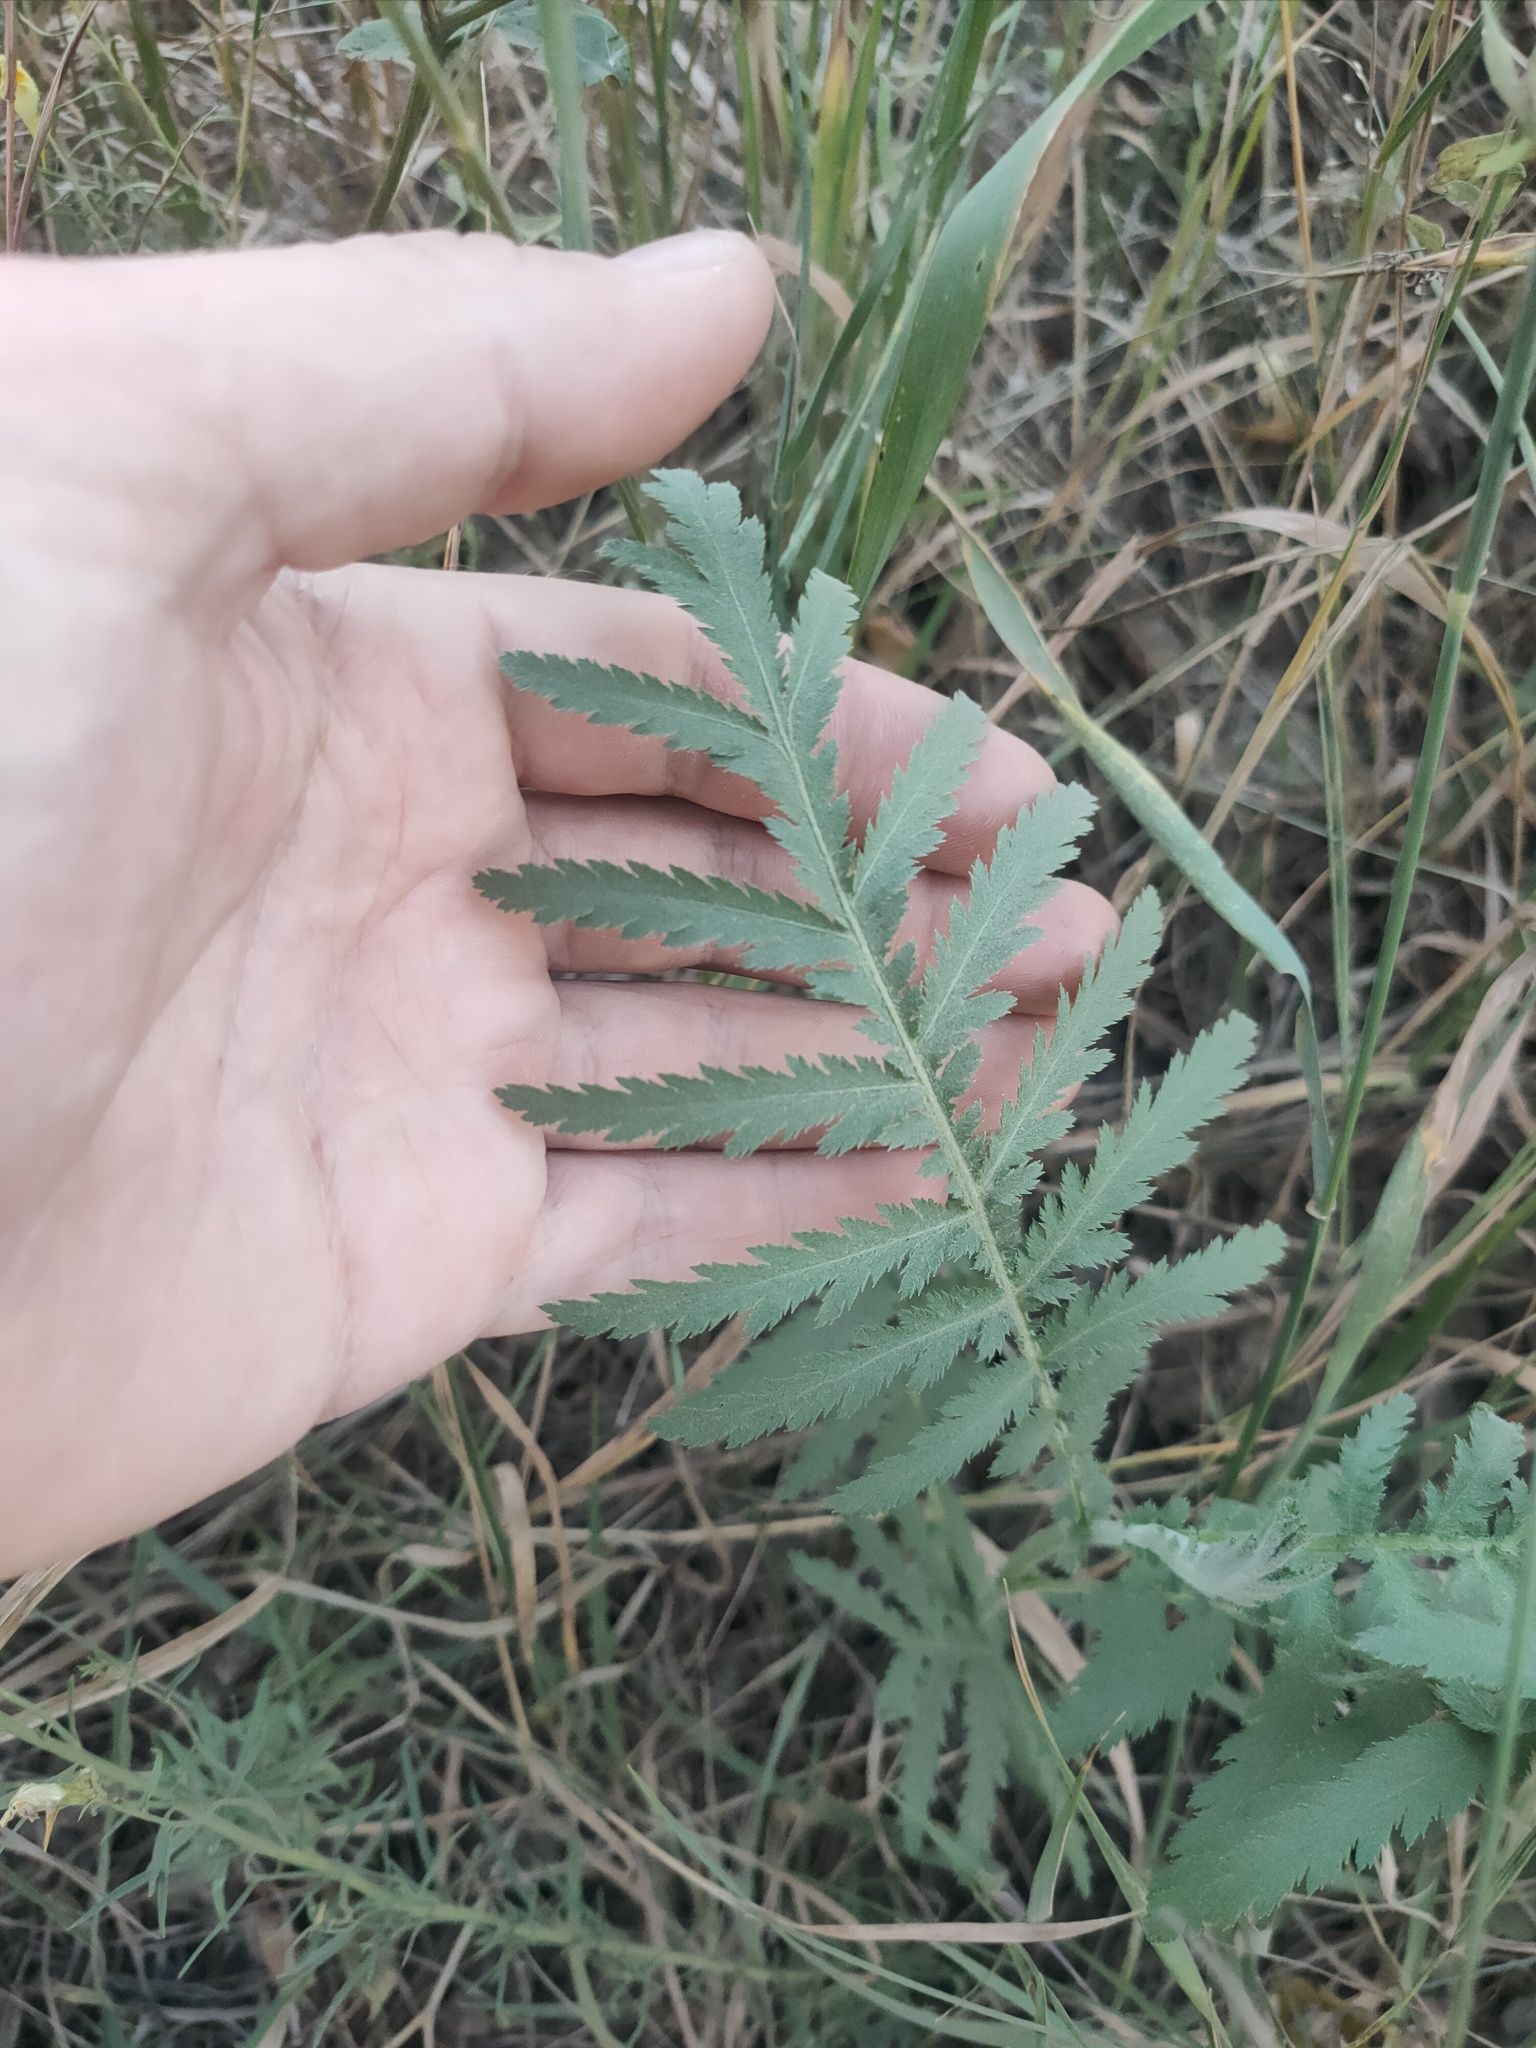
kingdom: Plantae
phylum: Tracheophyta
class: Magnoliopsida
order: Asterales
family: Asteraceae
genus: Tanacetum
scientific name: Tanacetum vulgare
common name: Common tansy
